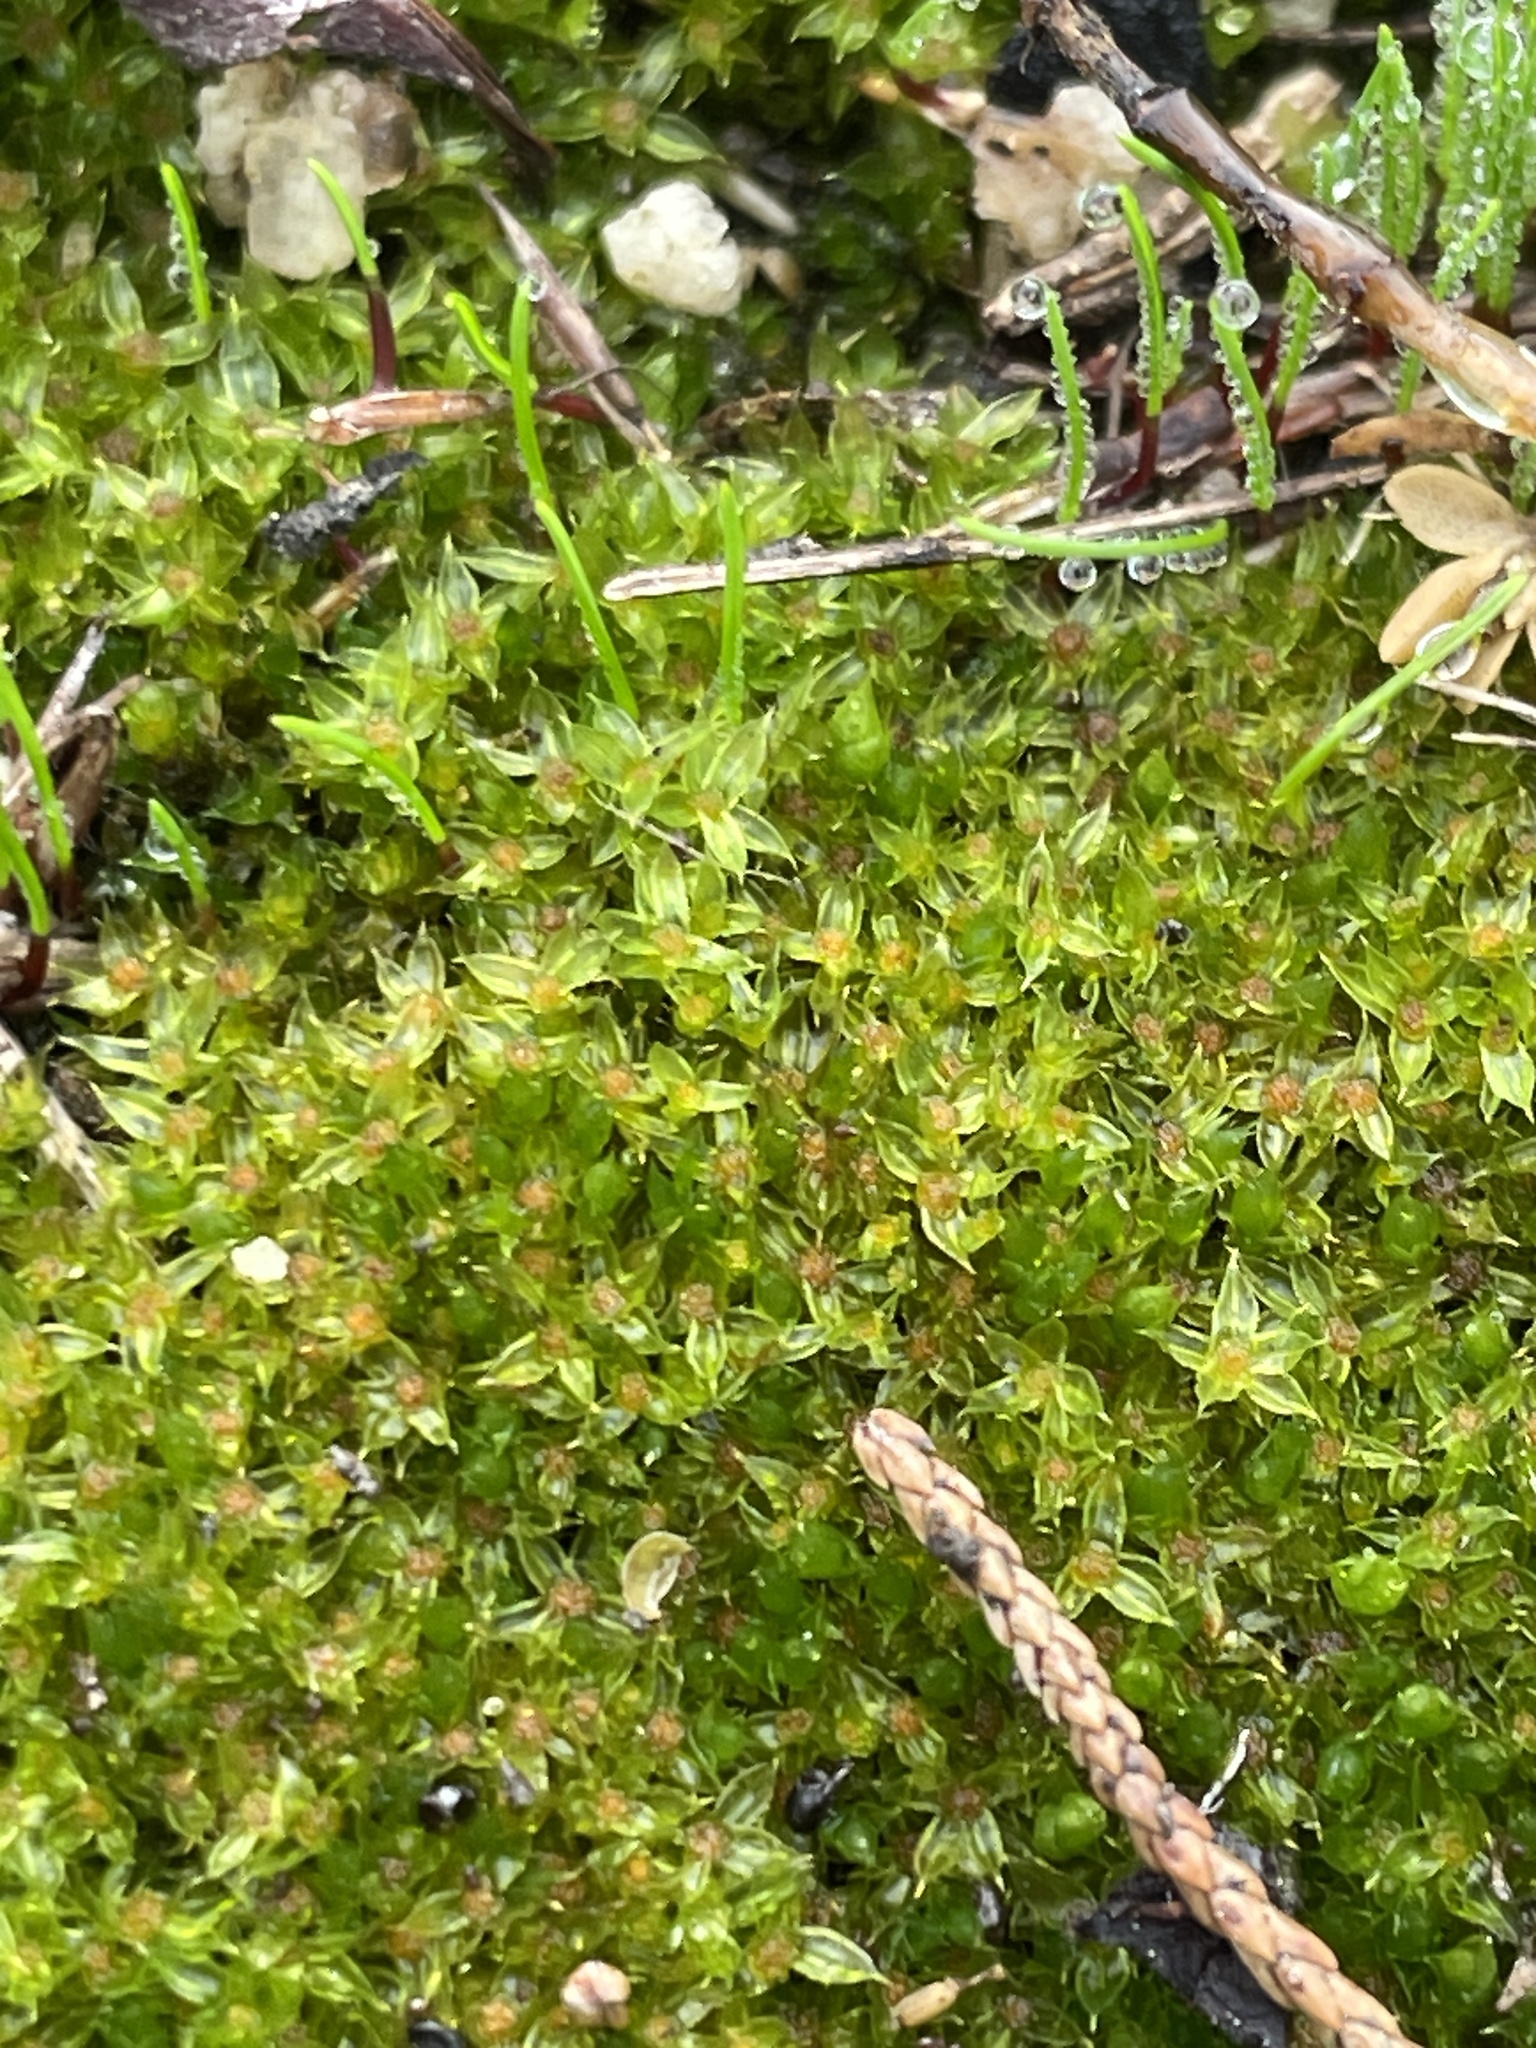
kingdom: Plantae
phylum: Bryophyta
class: Bryopsida
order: Funariales
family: Funariaceae
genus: Funaria
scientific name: Funaria hygrometrica
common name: Common cord moss
